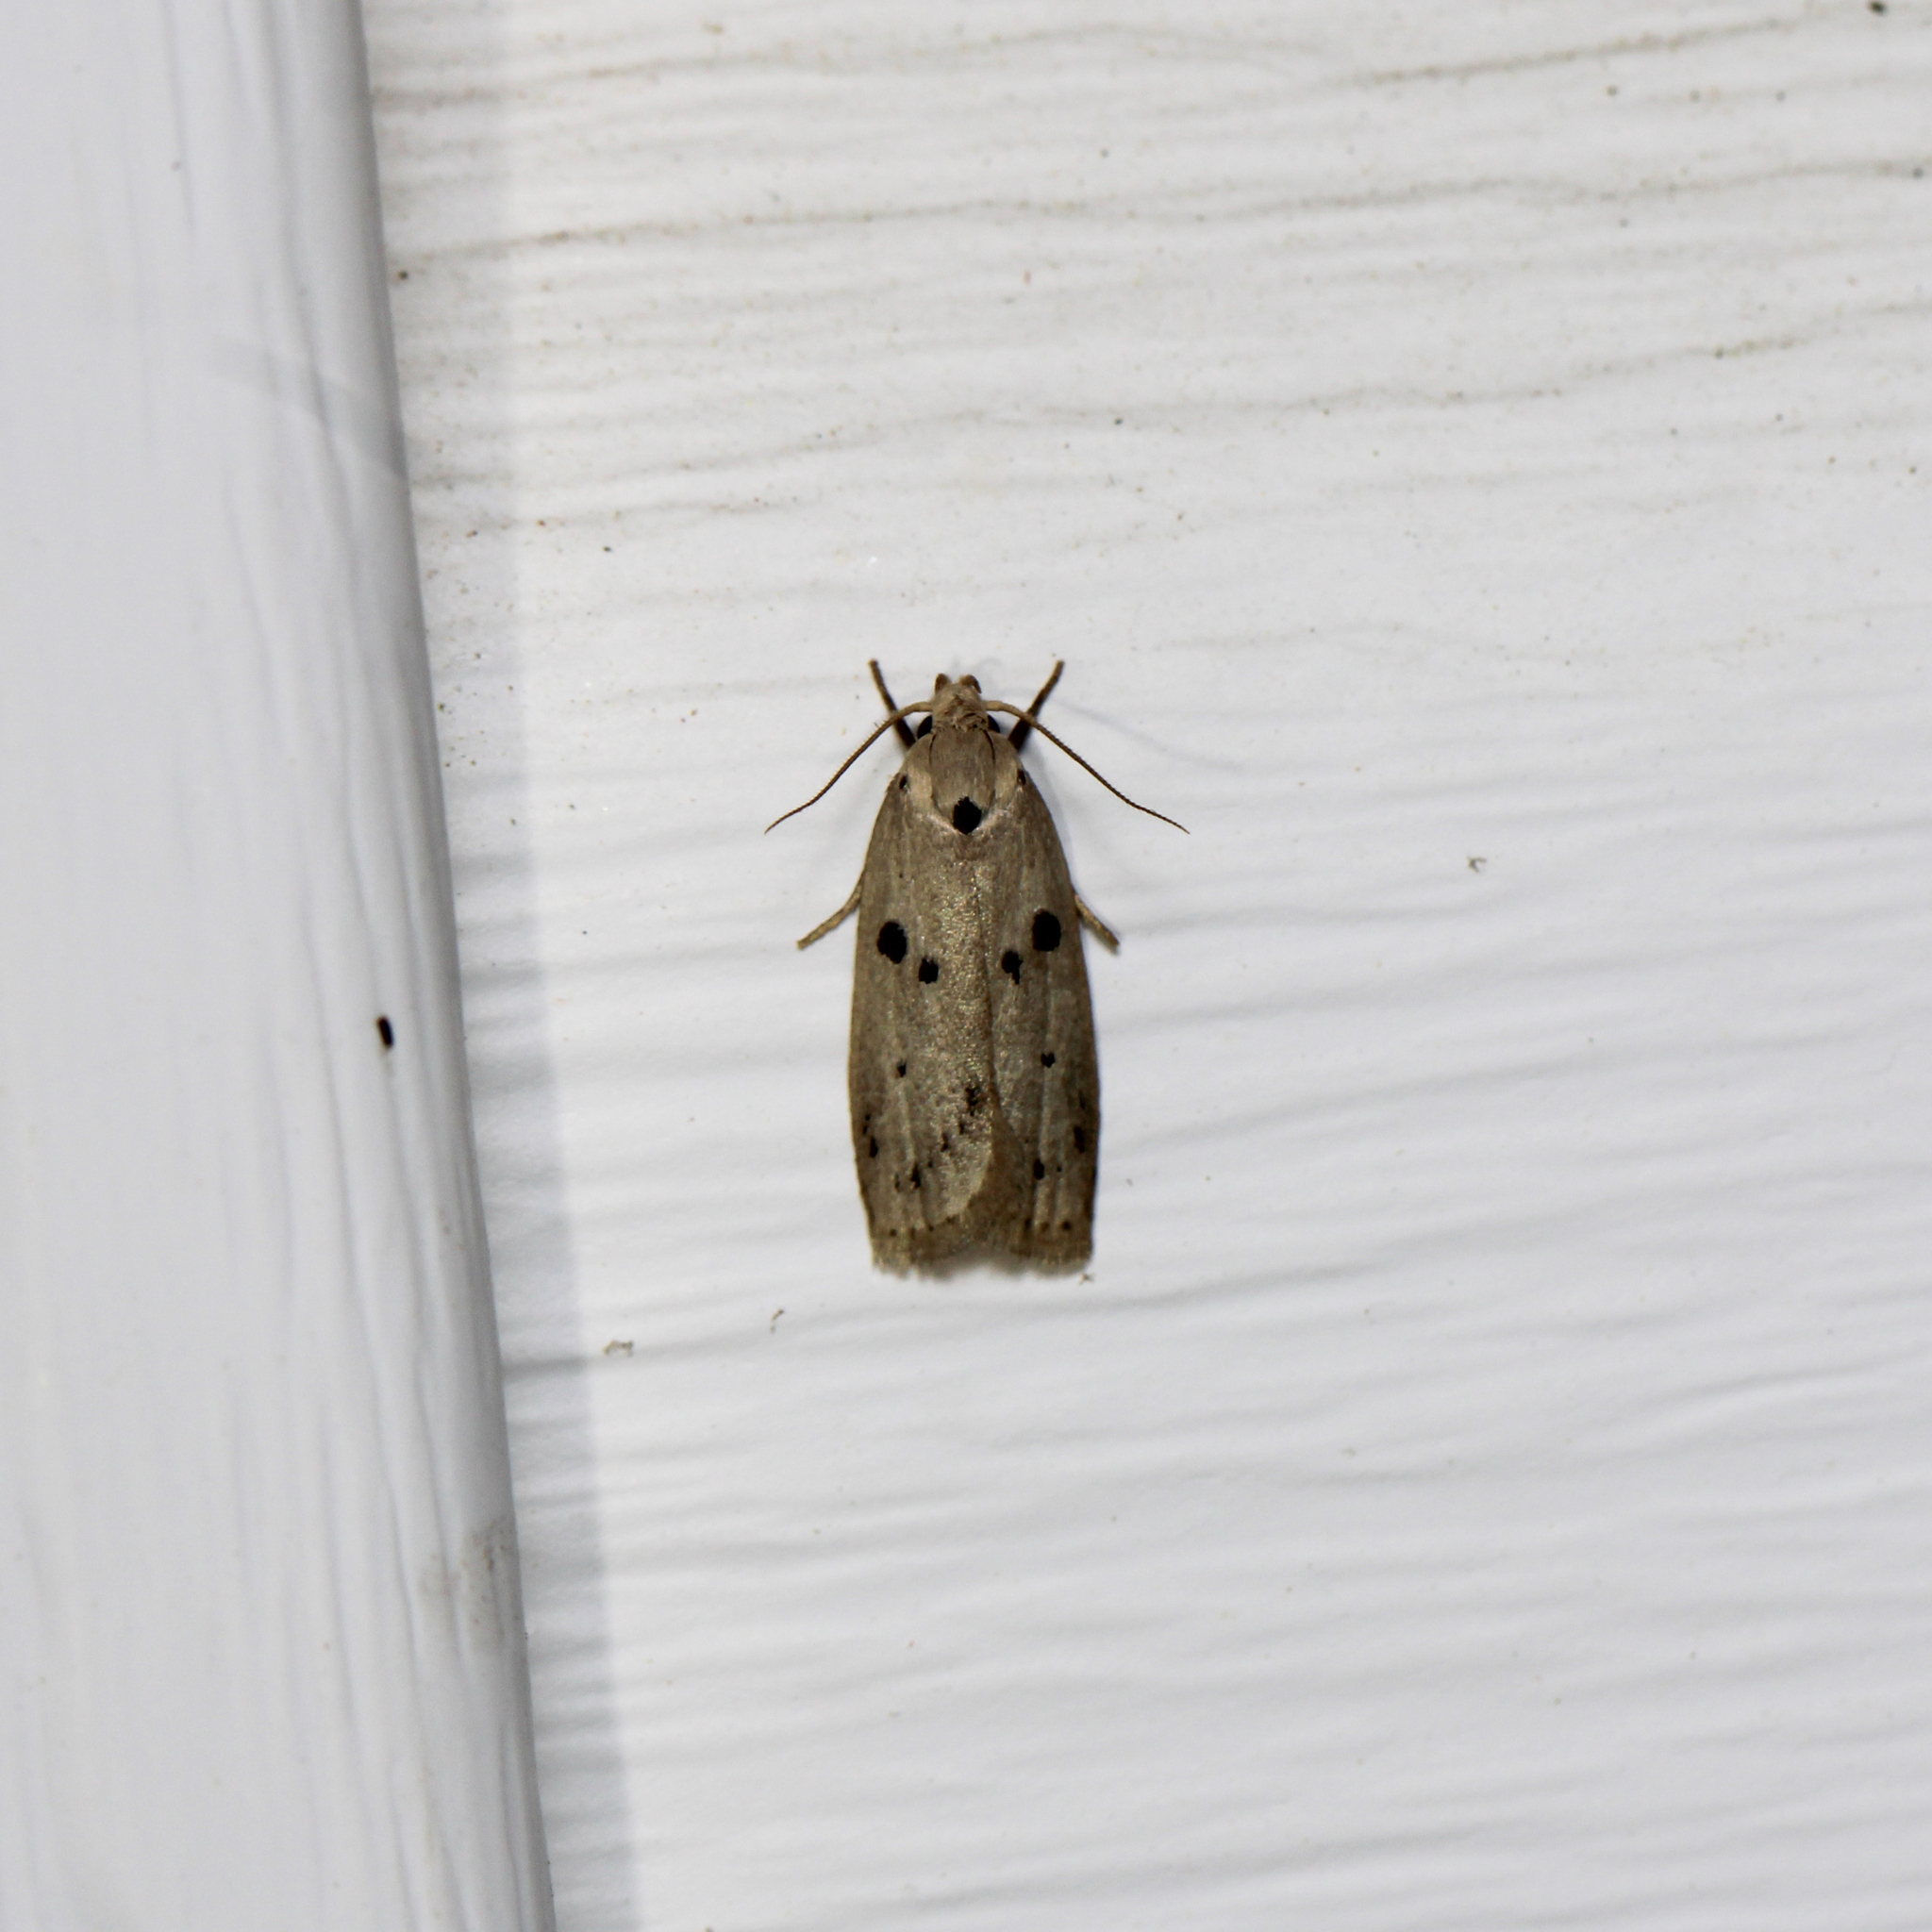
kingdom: Animalia
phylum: Arthropoda
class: Insecta
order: Lepidoptera
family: Peleopodidae
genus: Scythropiodes
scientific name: Scythropiodes issikii
